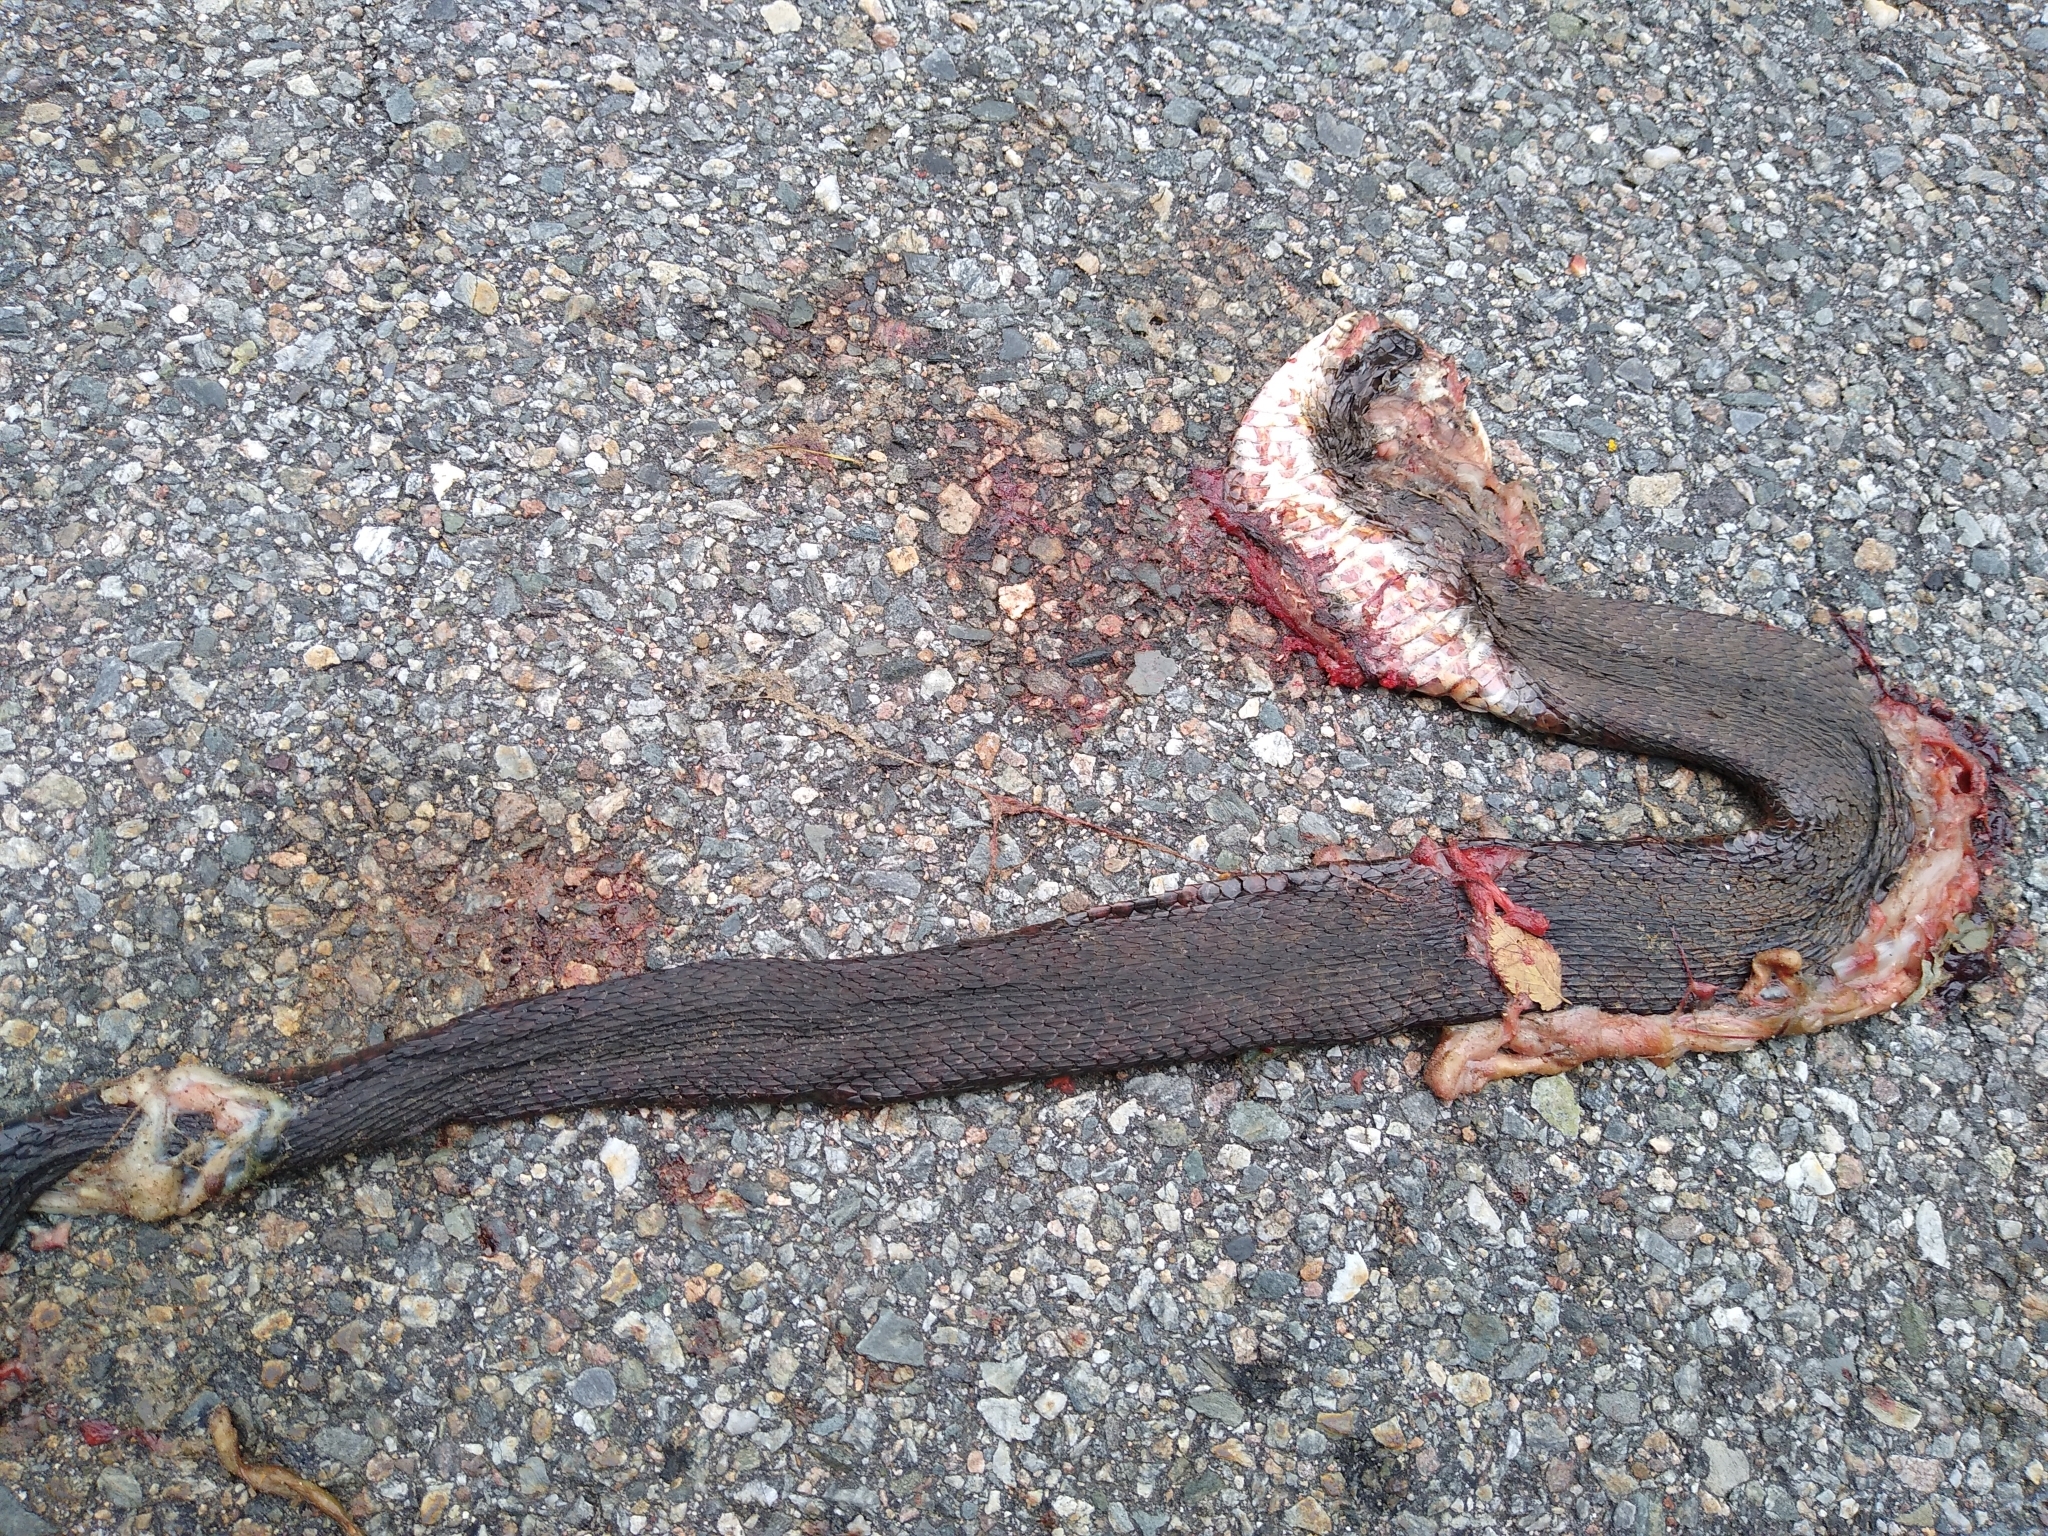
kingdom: Animalia
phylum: Chordata
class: Squamata
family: Colubridae
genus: Nerodia
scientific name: Nerodia sipedon
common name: Northern water snake
